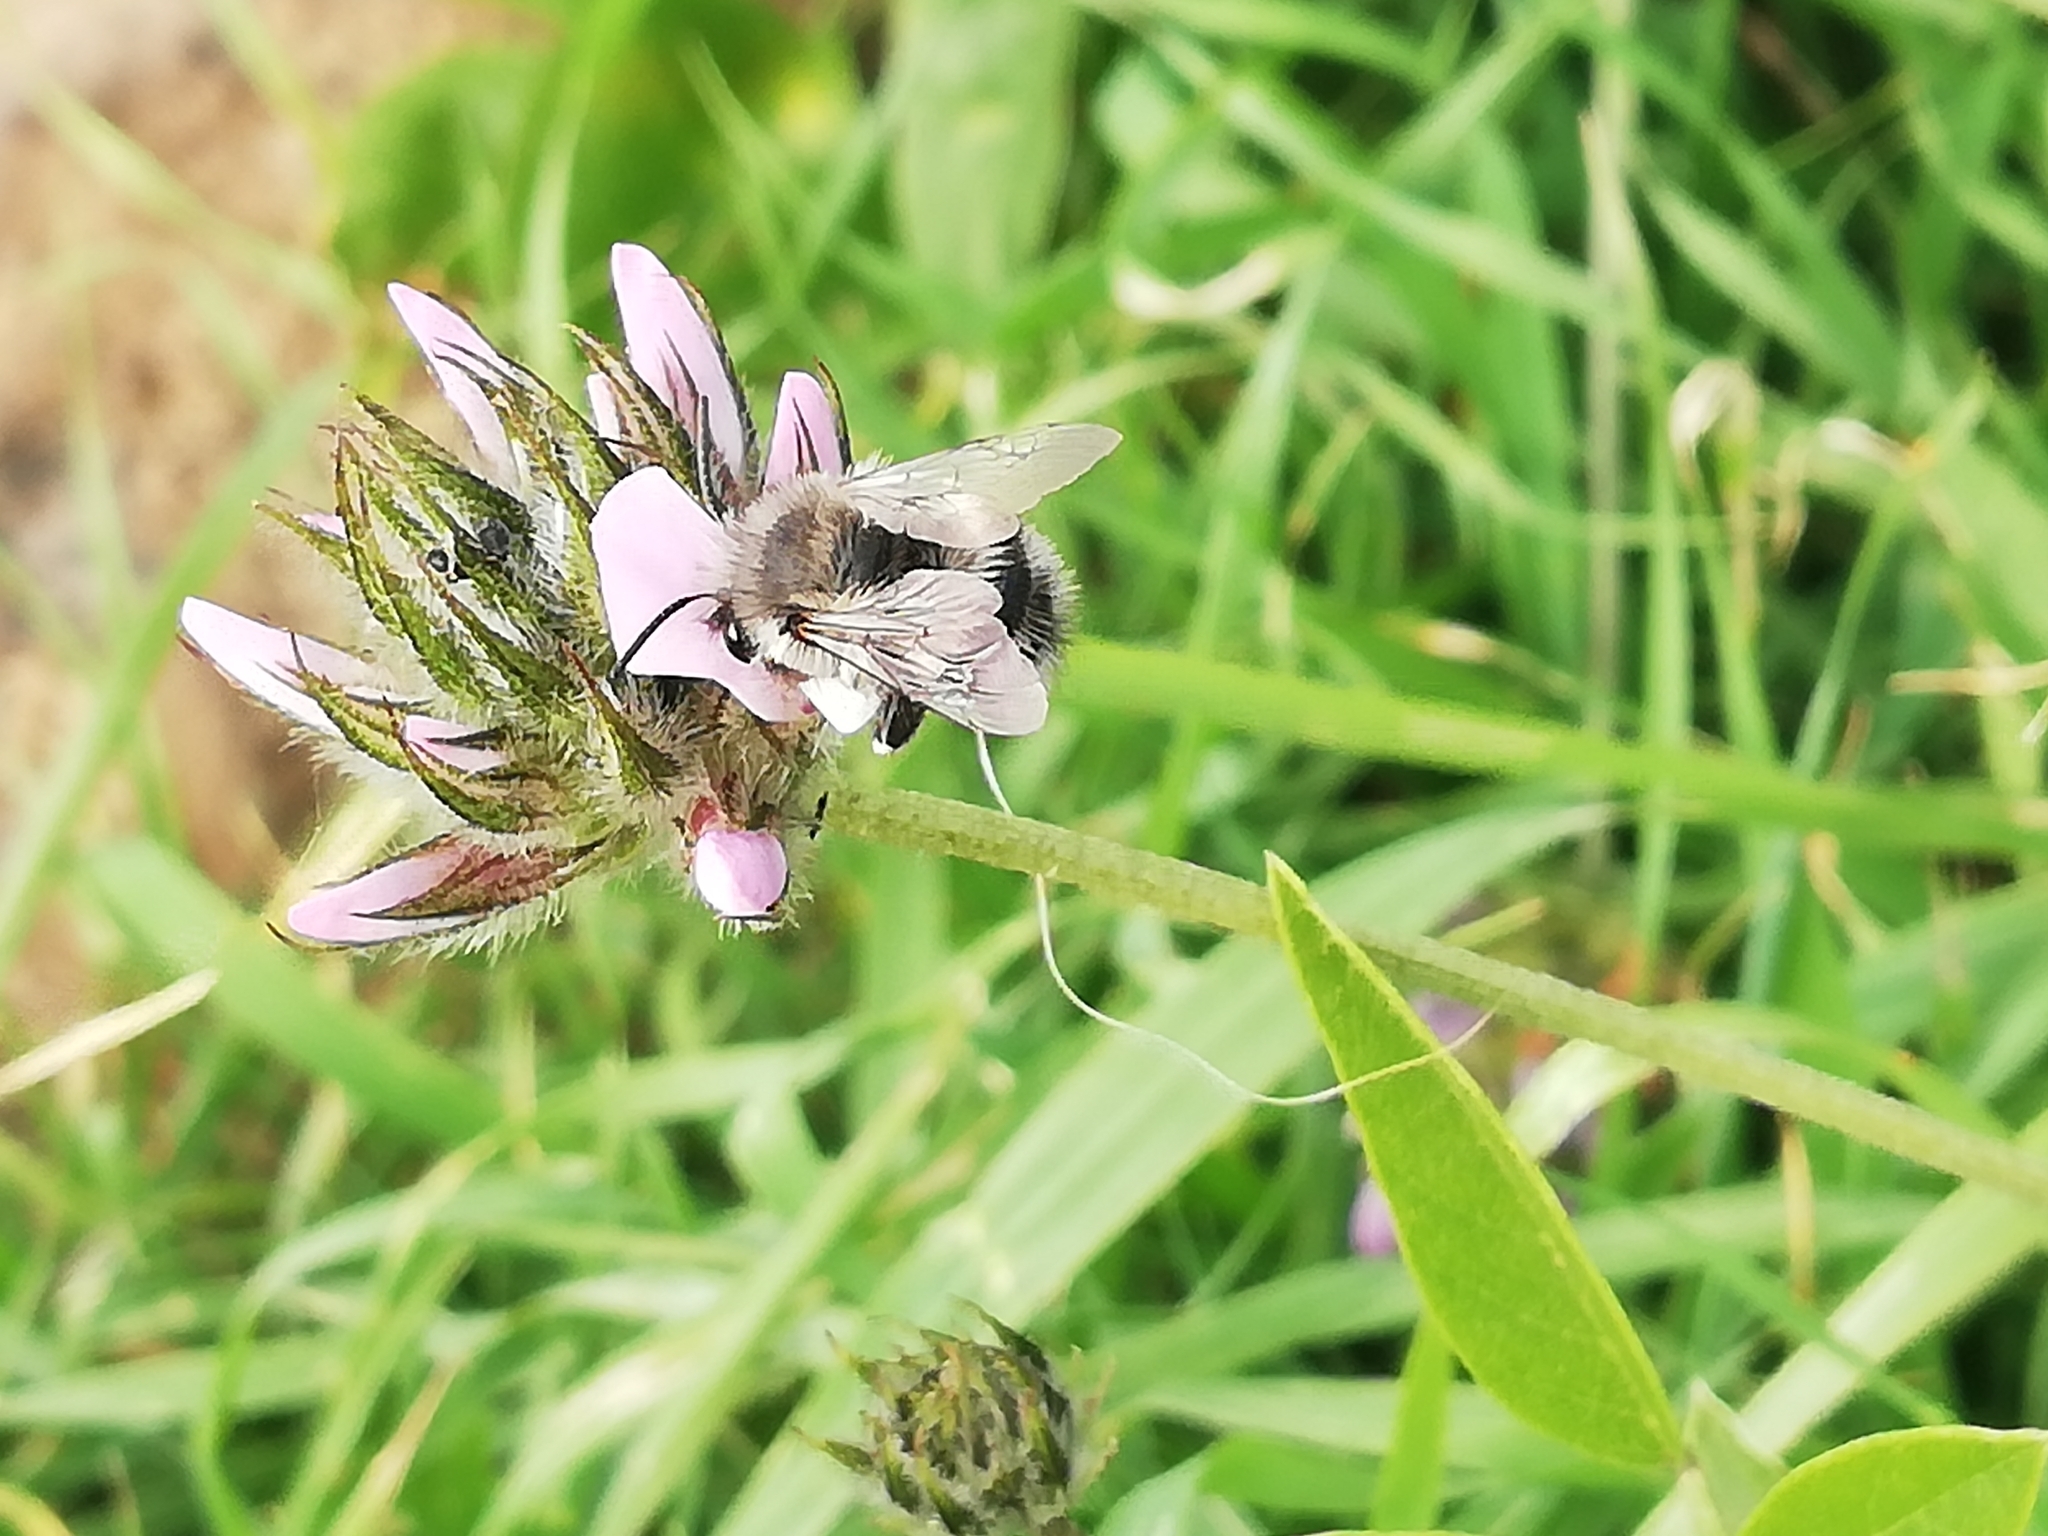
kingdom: Animalia
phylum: Arthropoda
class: Insecta
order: Hymenoptera
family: Apidae
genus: Anthophora
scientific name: Anthophora alluaudi
